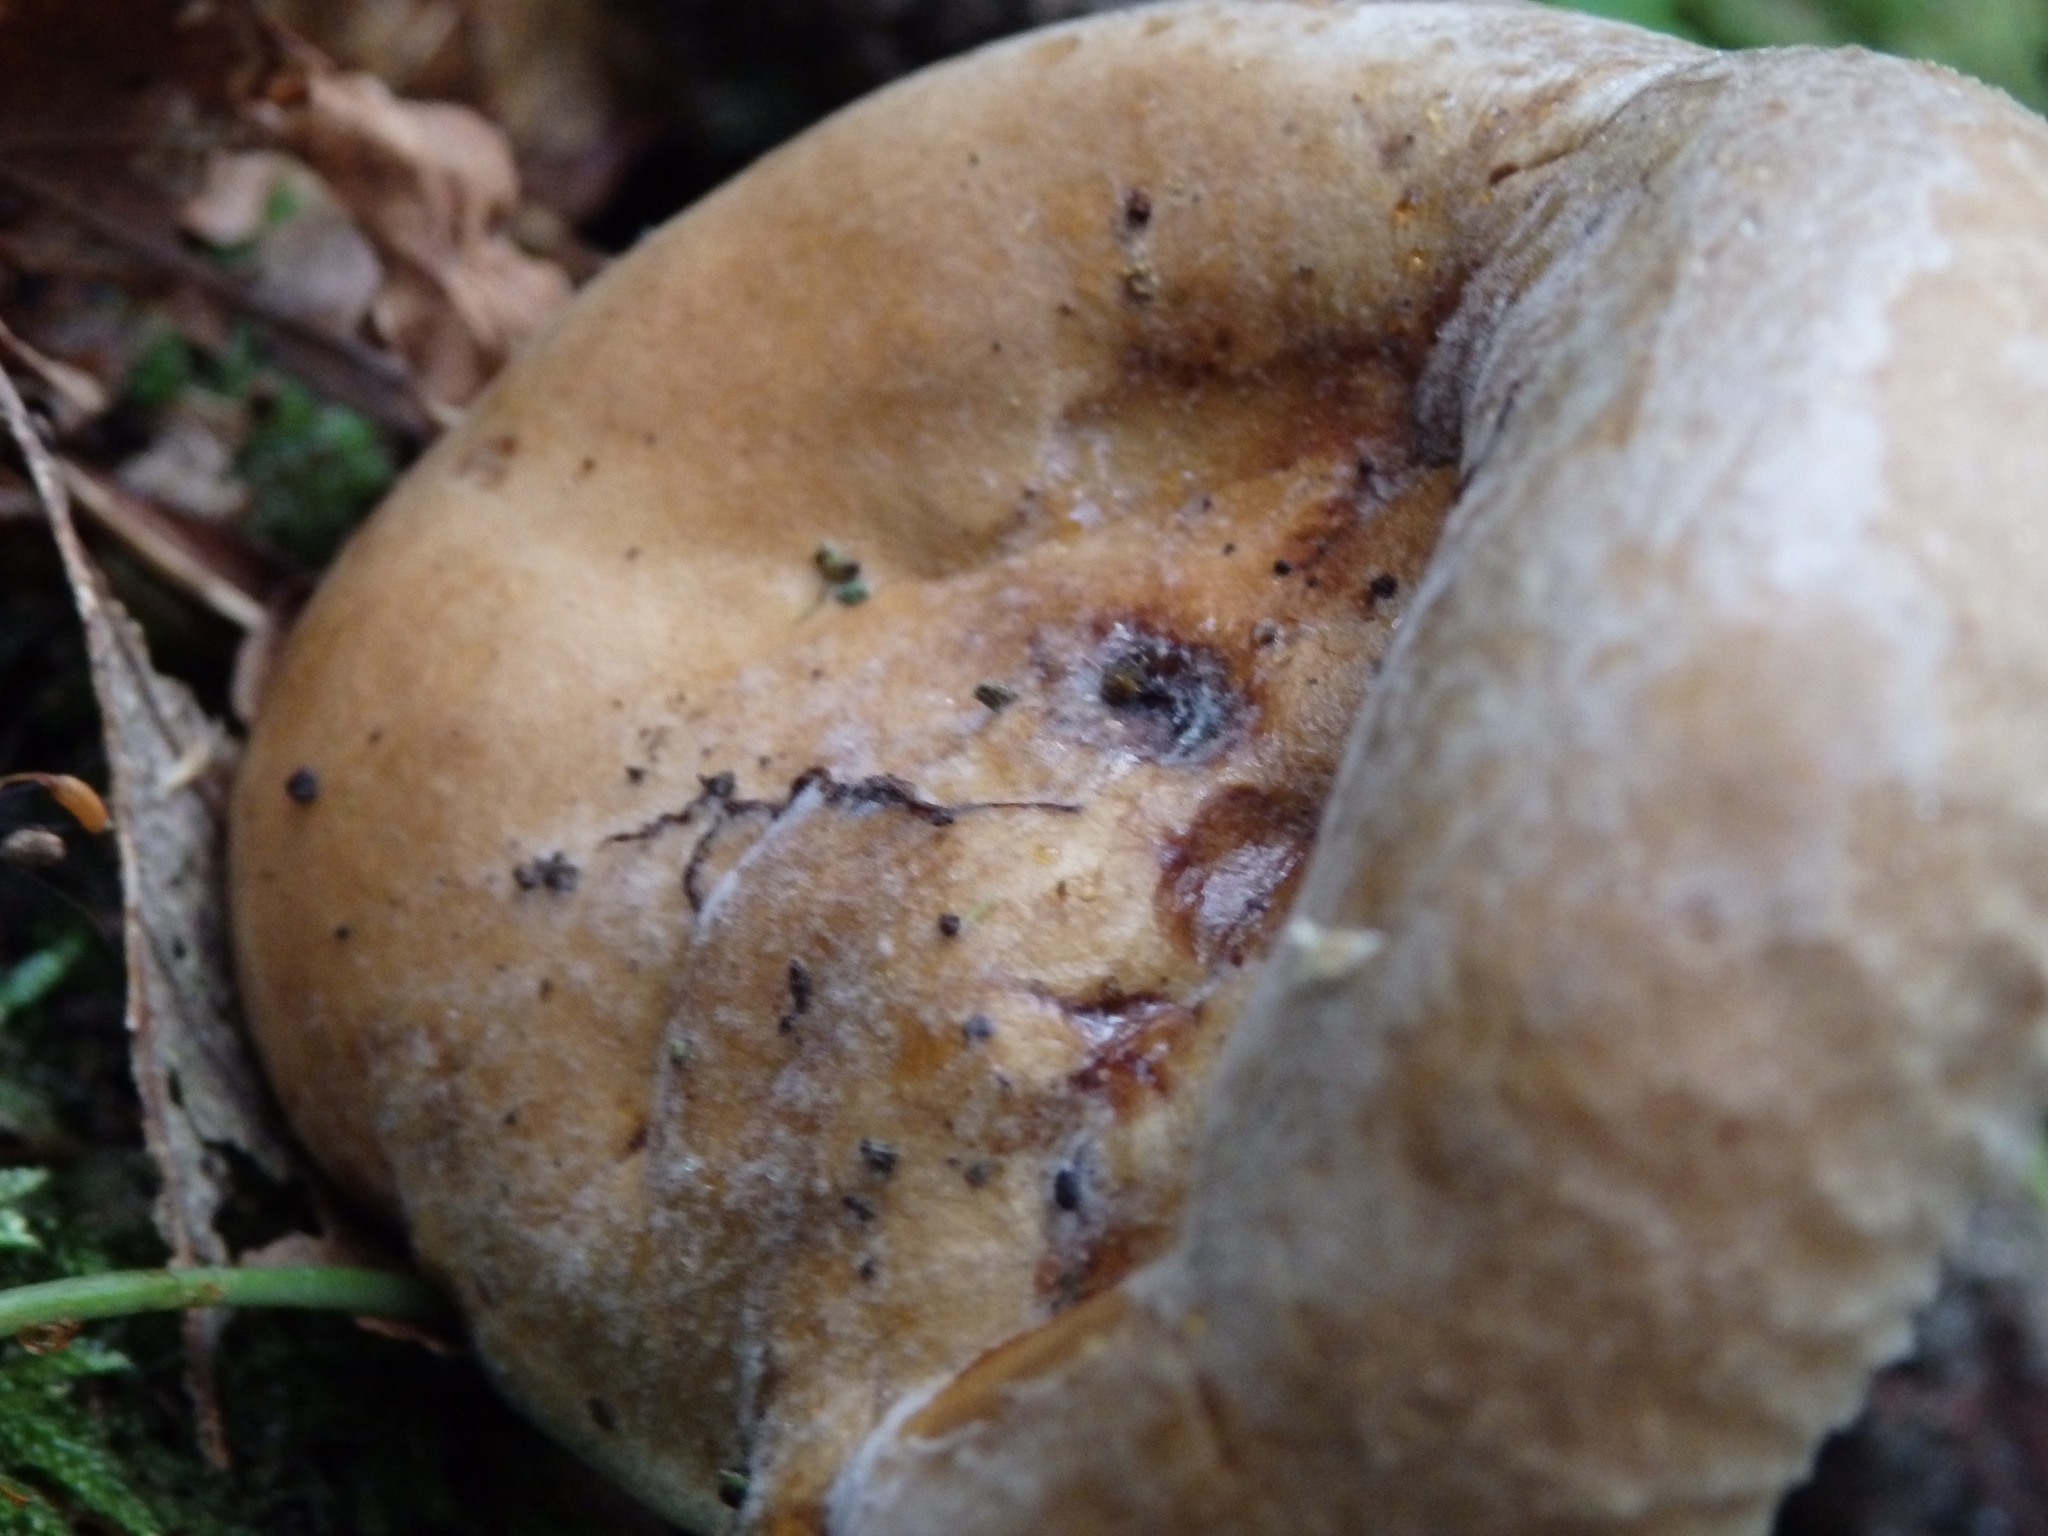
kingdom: Fungi
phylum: Basidiomycota
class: Agaricomycetes
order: Boletales
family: Paxillaceae
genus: Paxillus
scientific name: Paxillus involutus
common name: Brown roll rim
